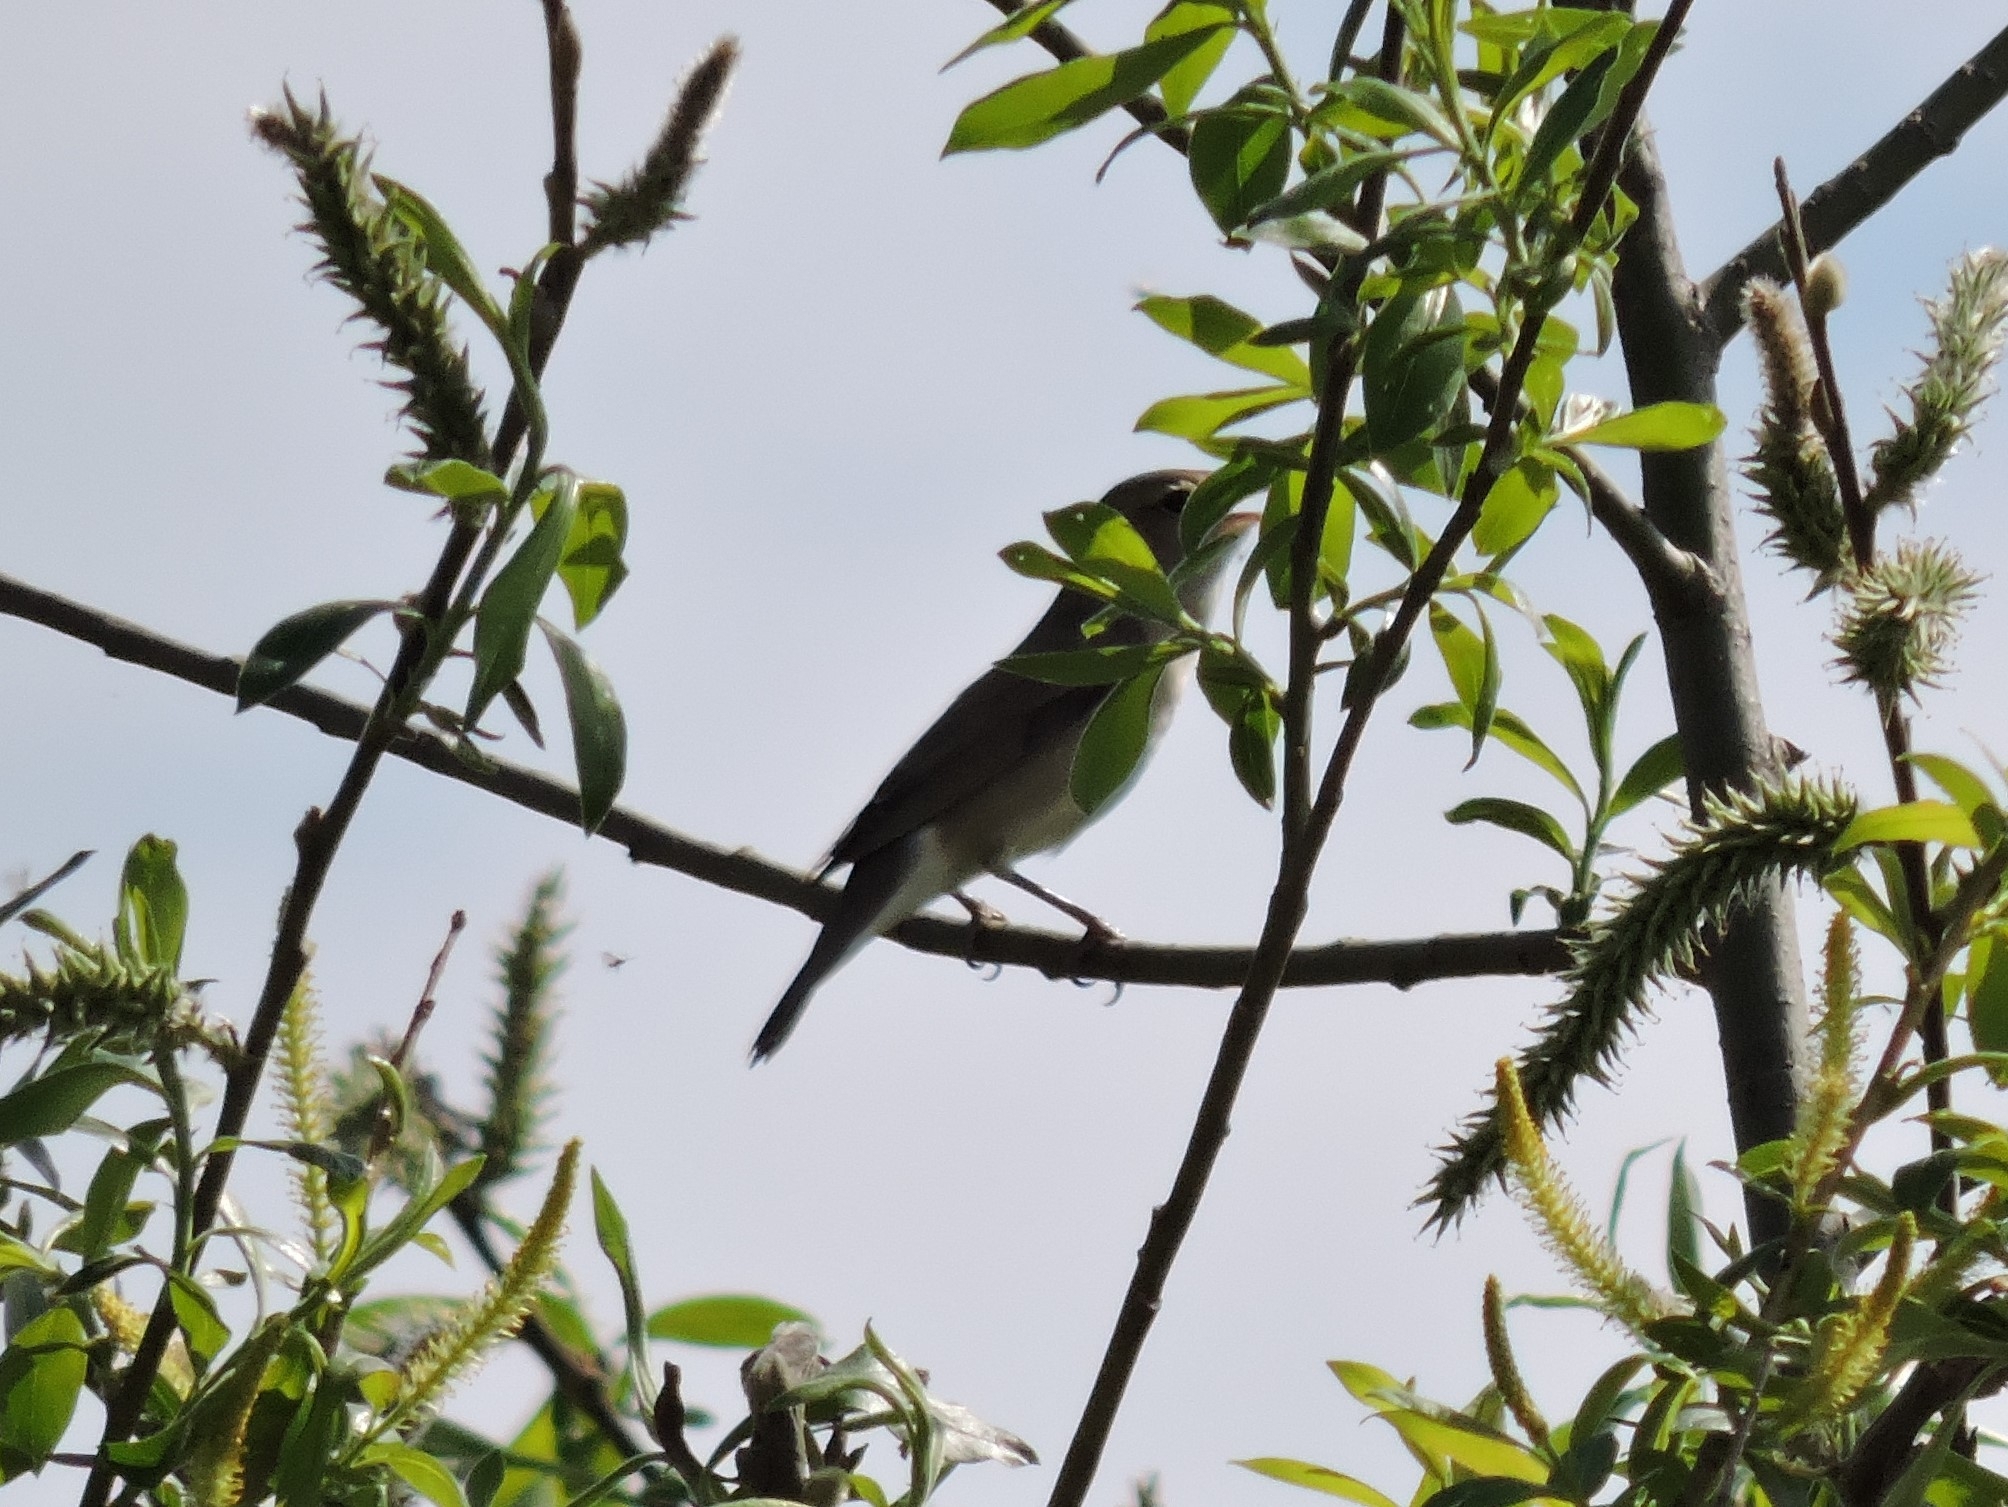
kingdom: Animalia
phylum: Chordata
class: Aves
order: Passeriformes
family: Sylviidae
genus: Sylvia
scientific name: Sylvia borin
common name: Garden warbler
